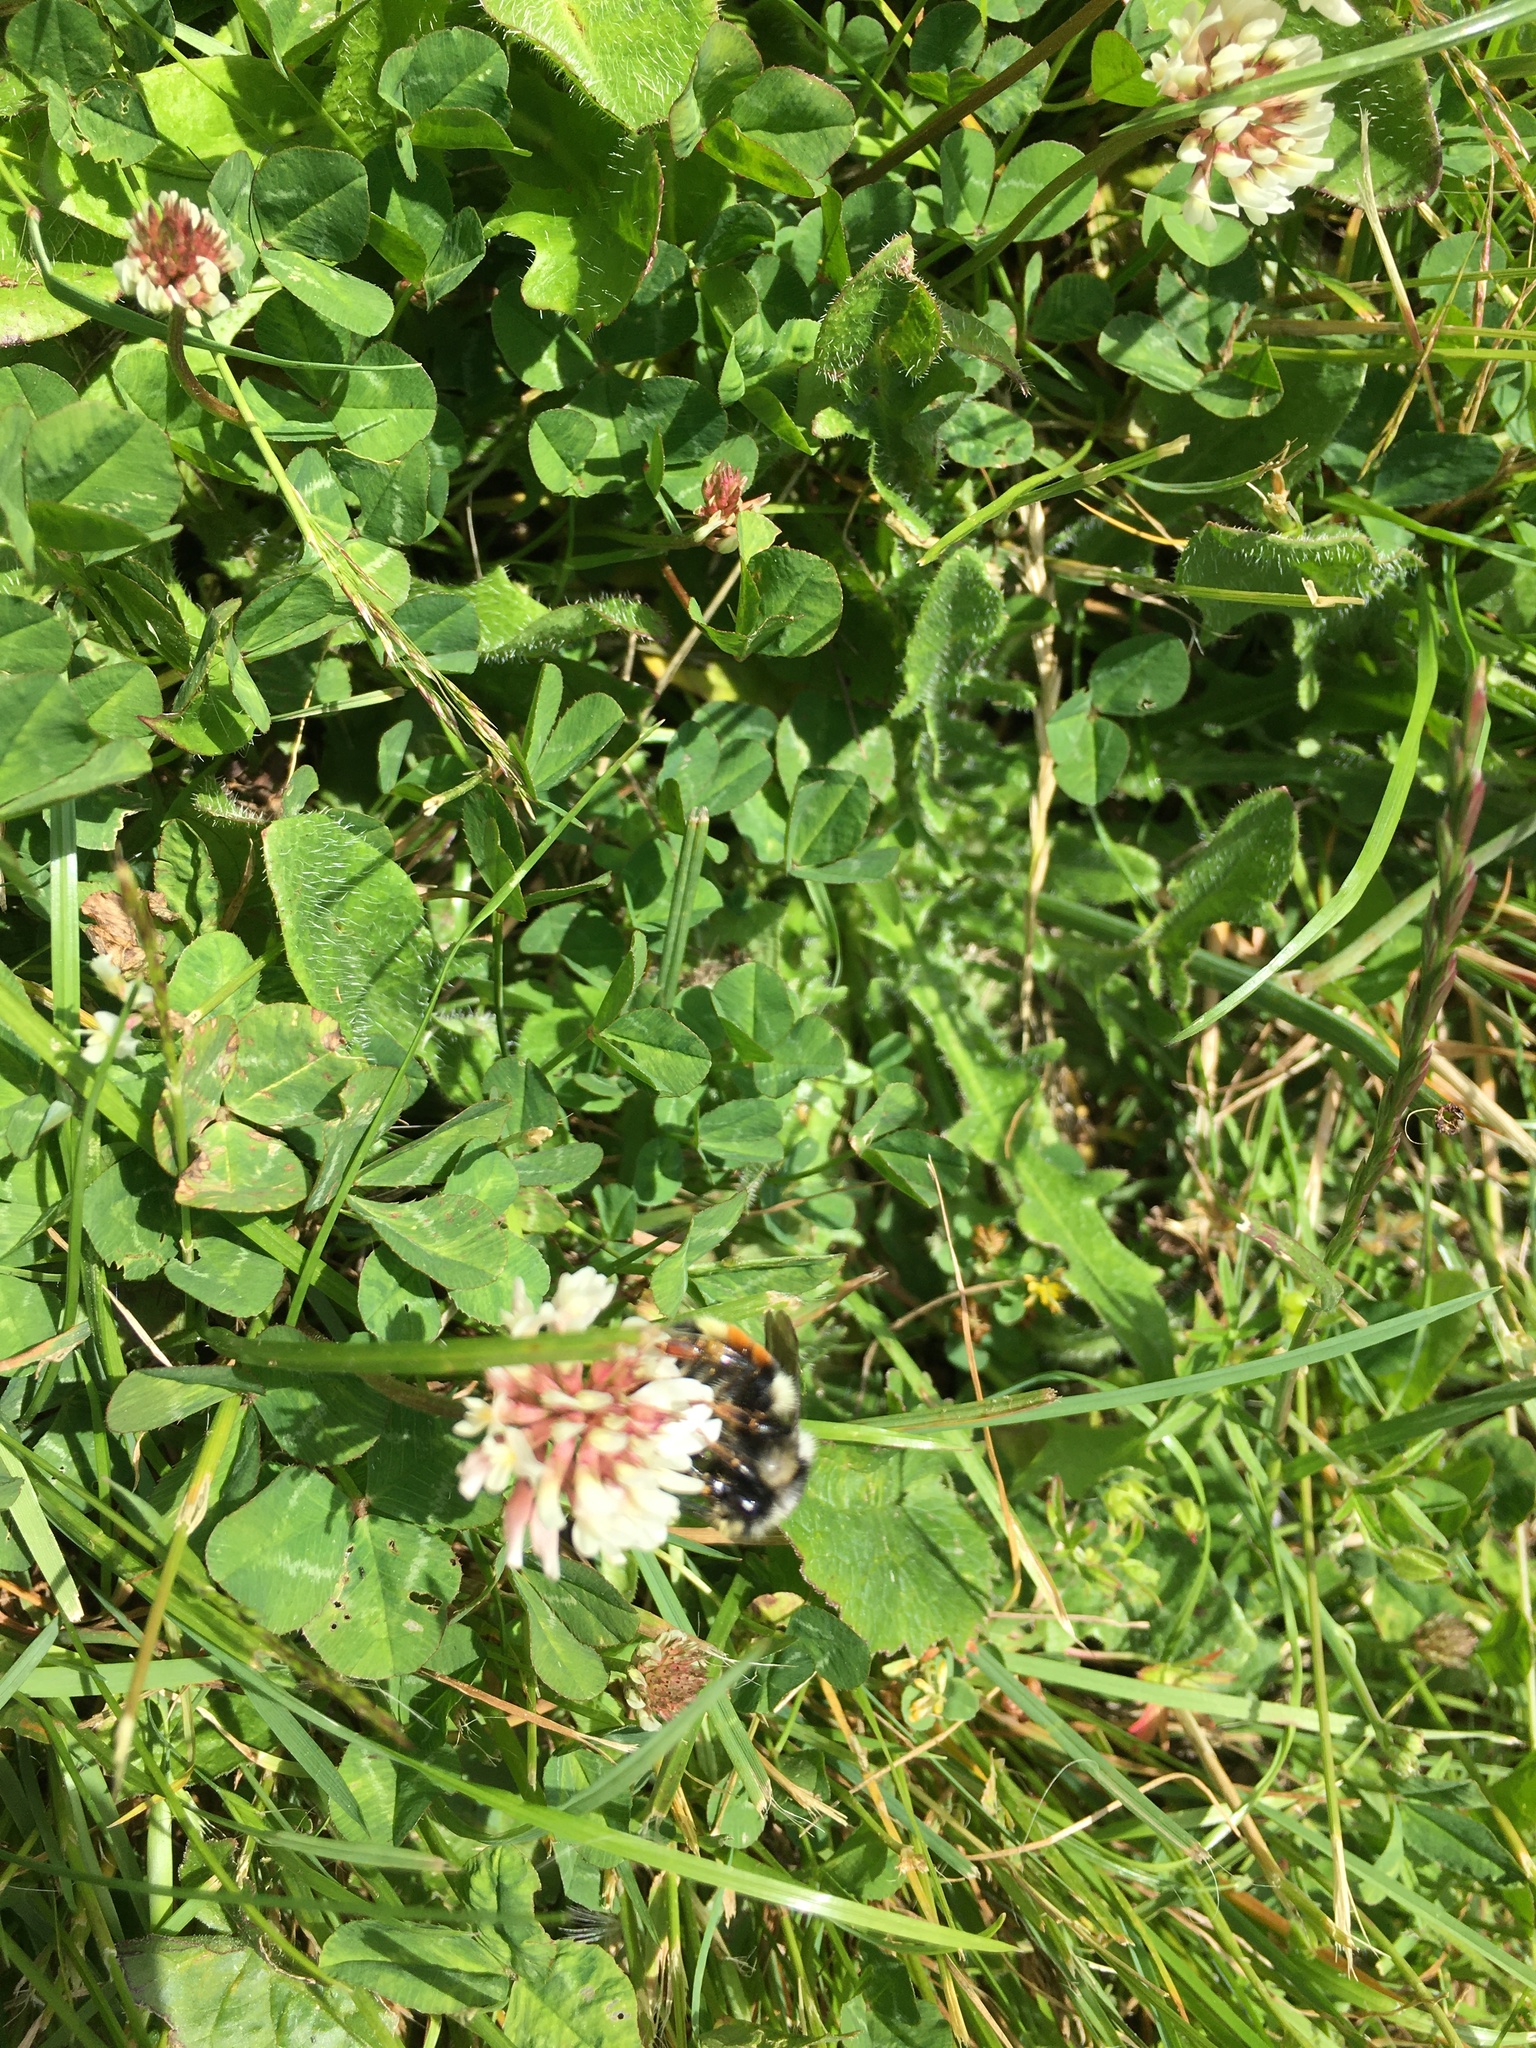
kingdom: Animalia
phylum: Arthropoda
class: Insecta
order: Hymenoptera
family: Apidae
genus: Bombus
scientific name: Bombus vancouverensis
